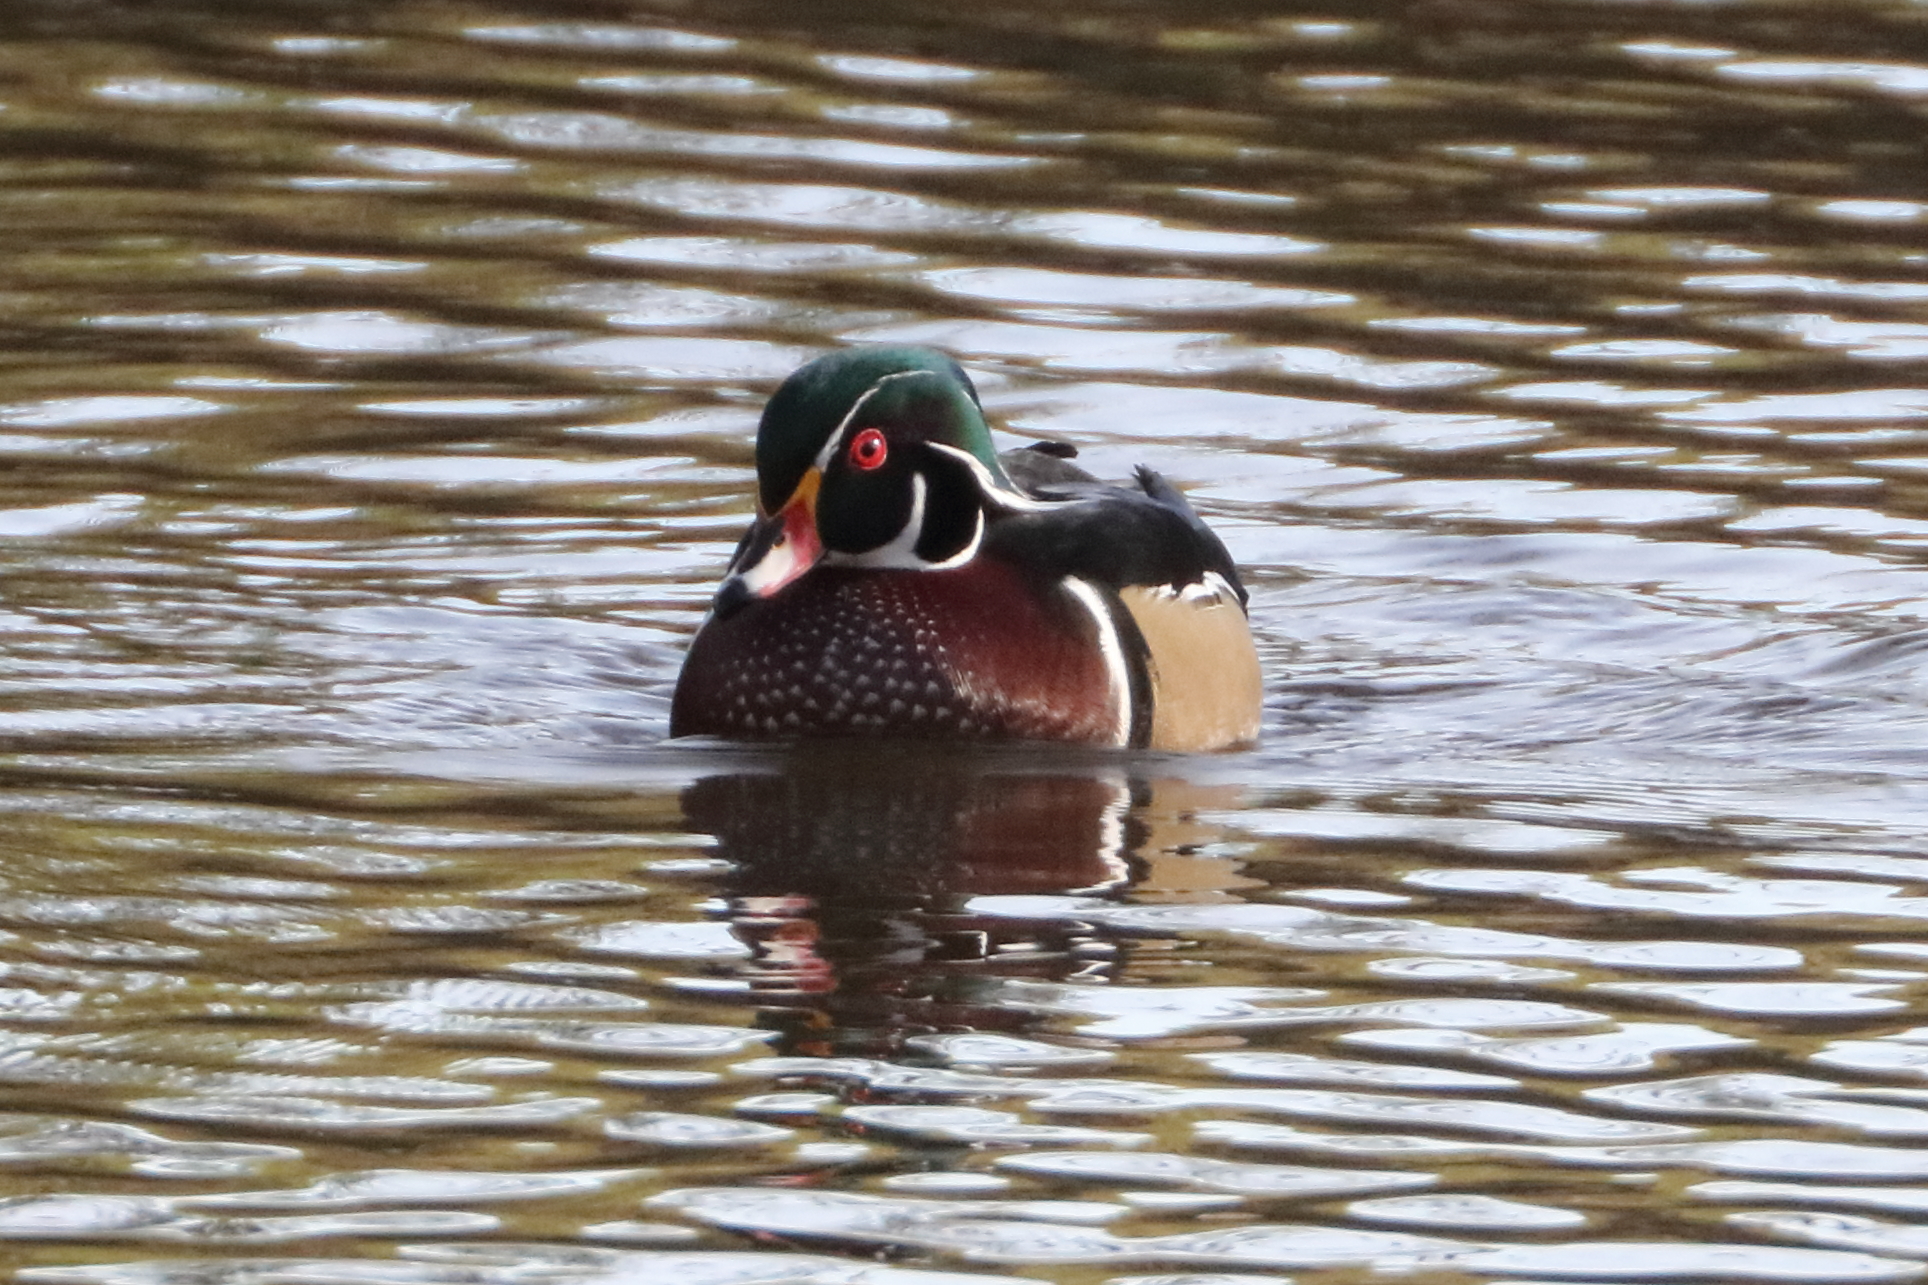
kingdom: Animalia
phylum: Chordata
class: Aves
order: Anseriformes
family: Anatidae
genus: Aix
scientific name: Aix sponsa
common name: Wood duck
